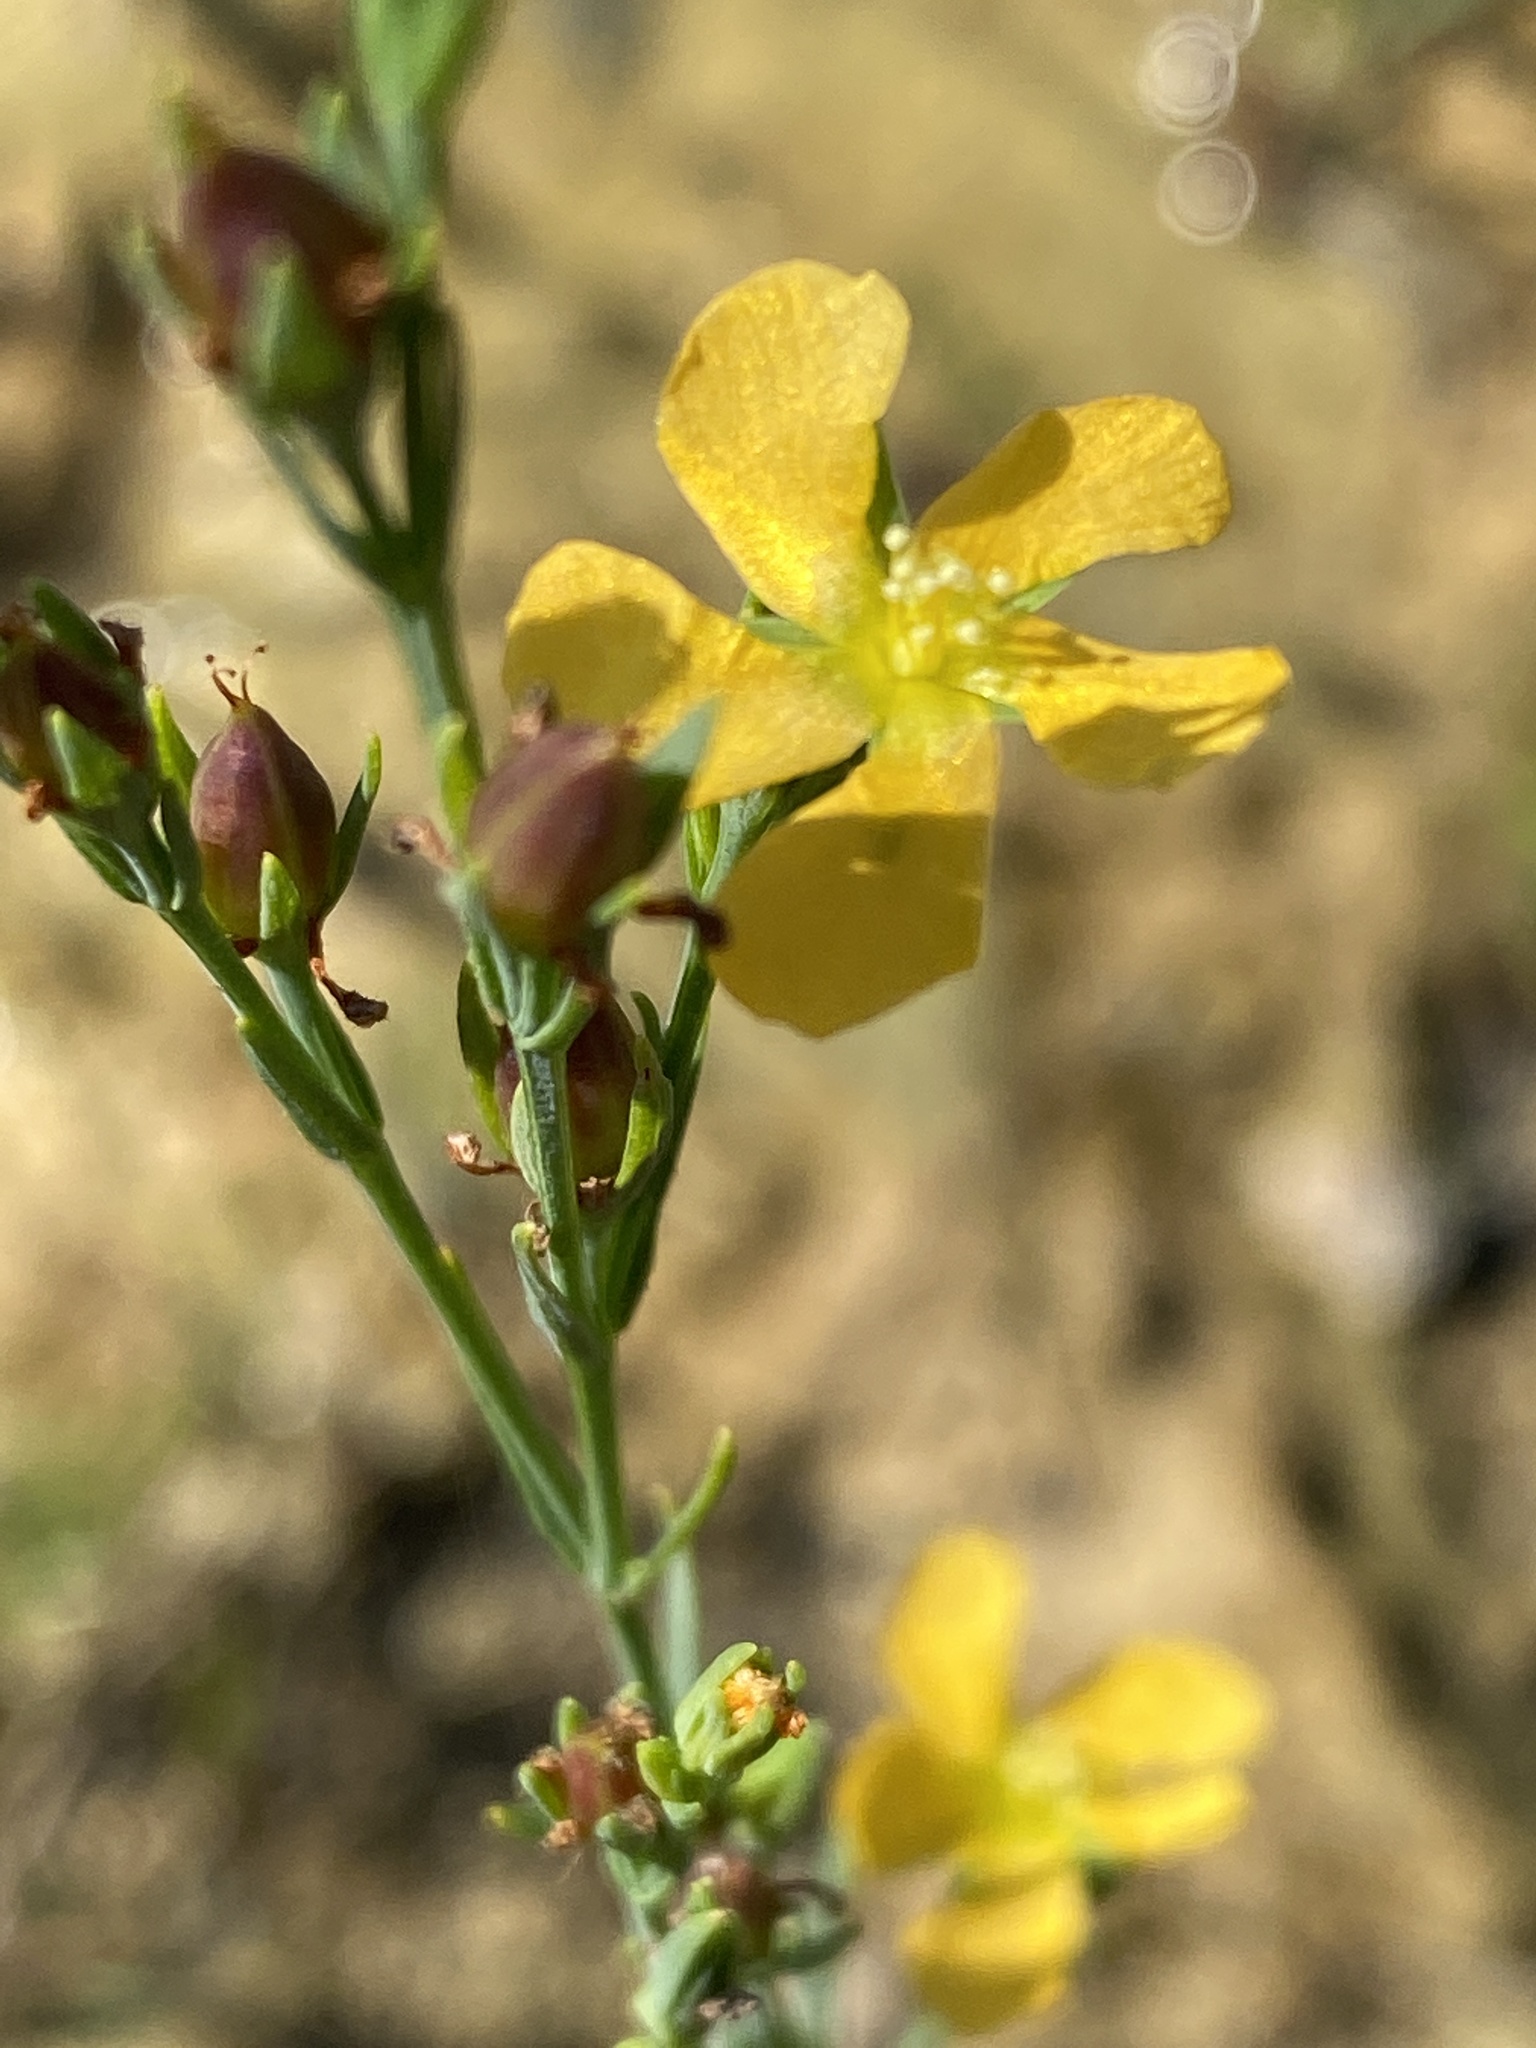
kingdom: Plantae
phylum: Tracheophyta
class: Magnoliopsida
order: Malpighiales
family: Hypericaceae
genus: Hypericum
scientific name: Hypericum drummondii
